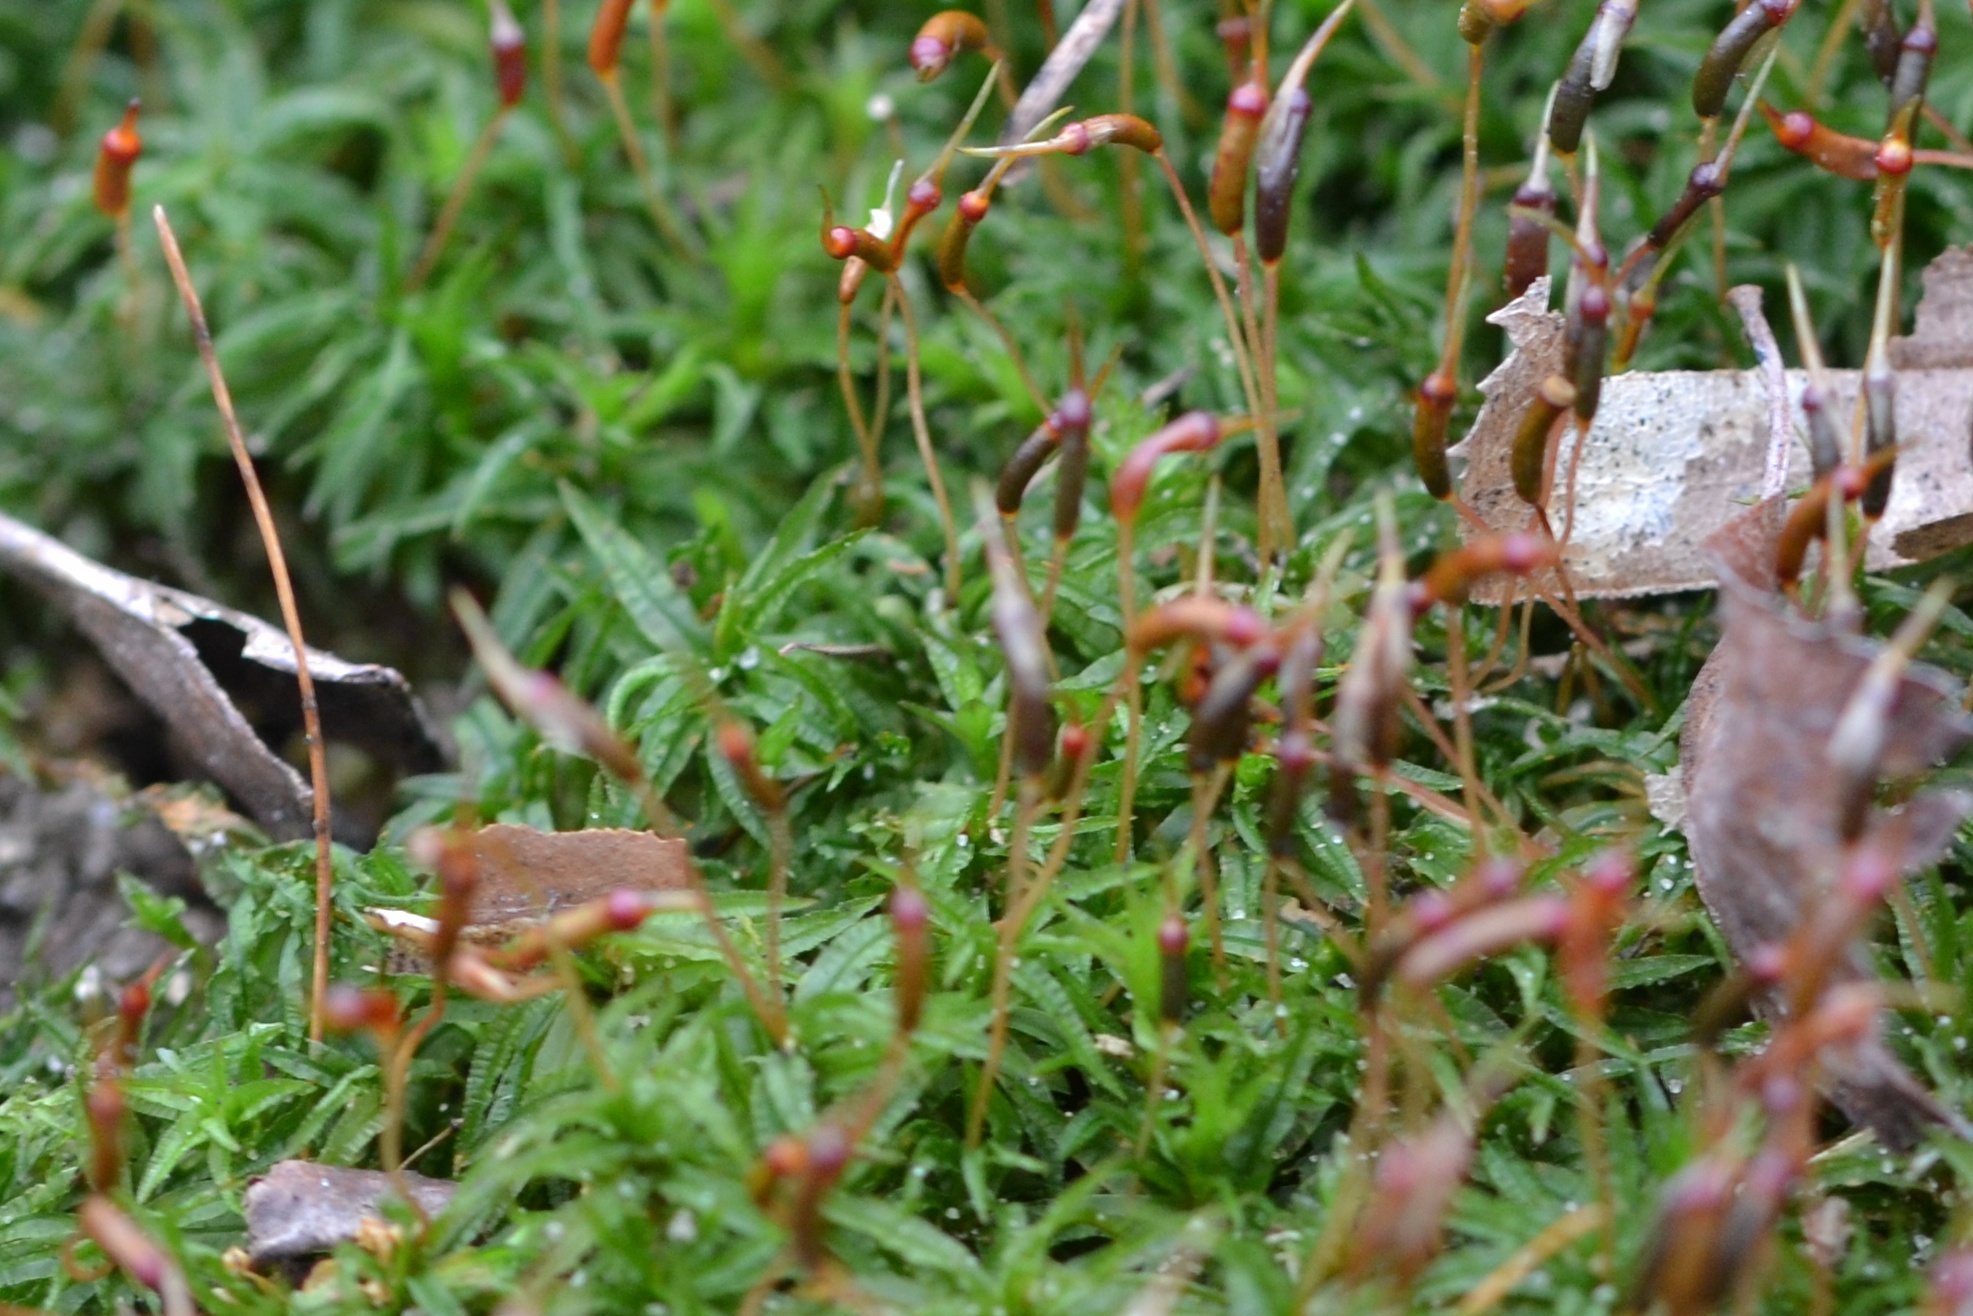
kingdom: Plantae
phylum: Bryophyta
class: Polytrichopsida
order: Polytrichales
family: Polytrichaceae
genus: Atrichum
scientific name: Atrichum undulatum
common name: Common smoothcap
